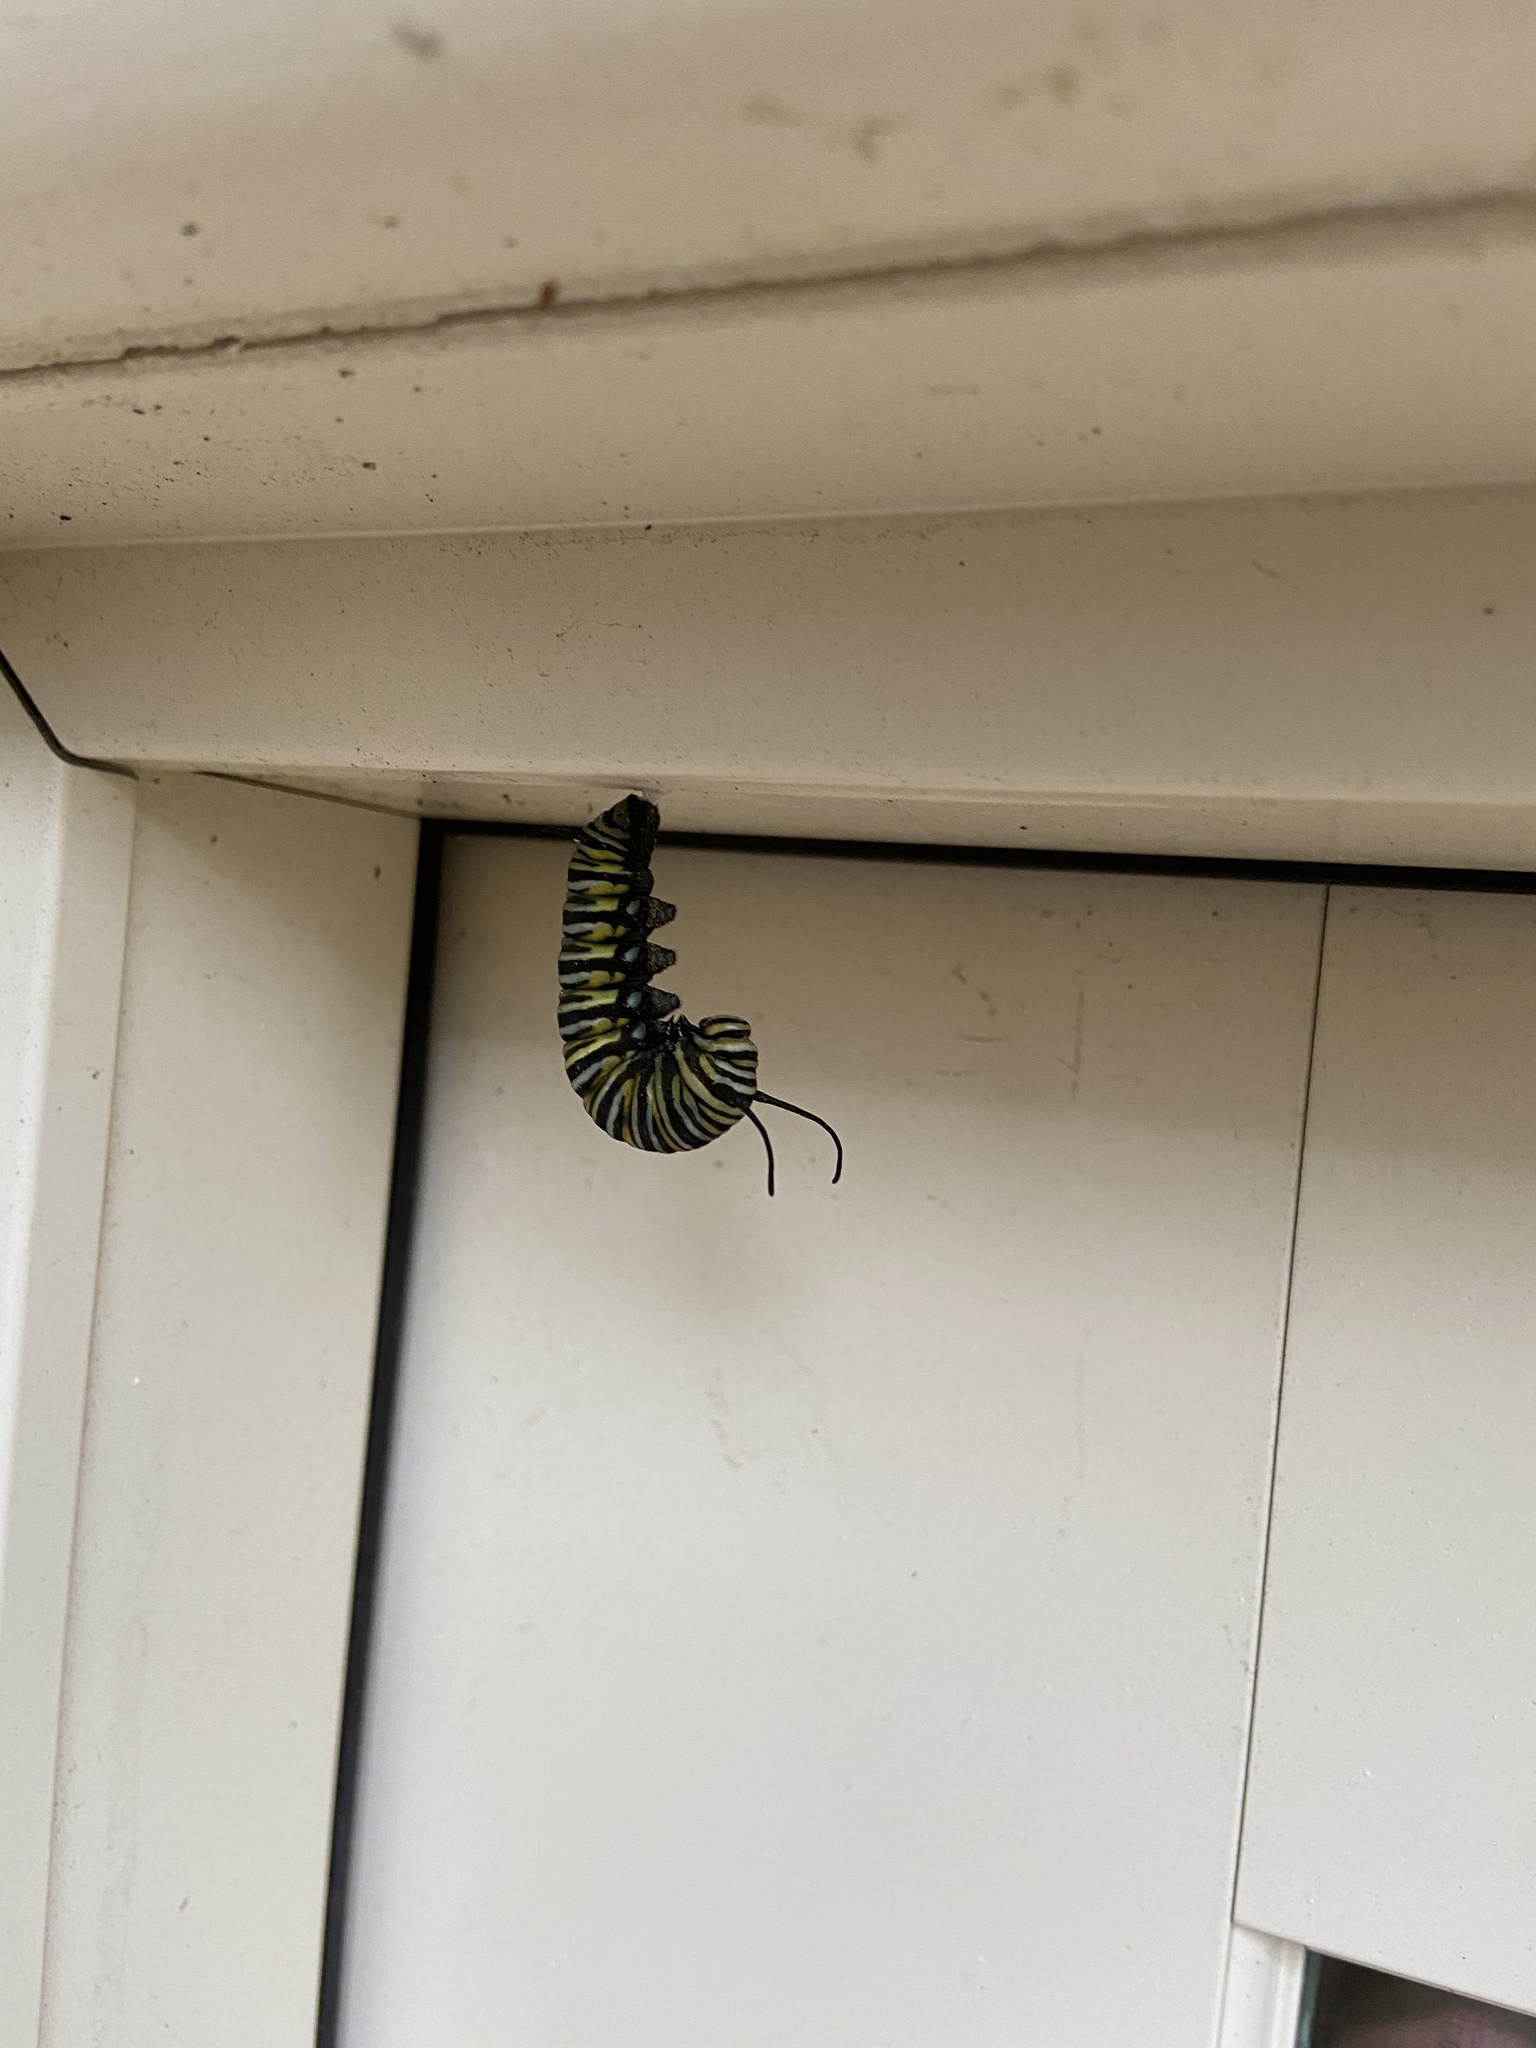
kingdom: Animalia
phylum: Arthropoda
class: Insecta
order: Lepidoptera
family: Nymphalidae
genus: Danaus
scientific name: Danaus plexippus
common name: Monarch
